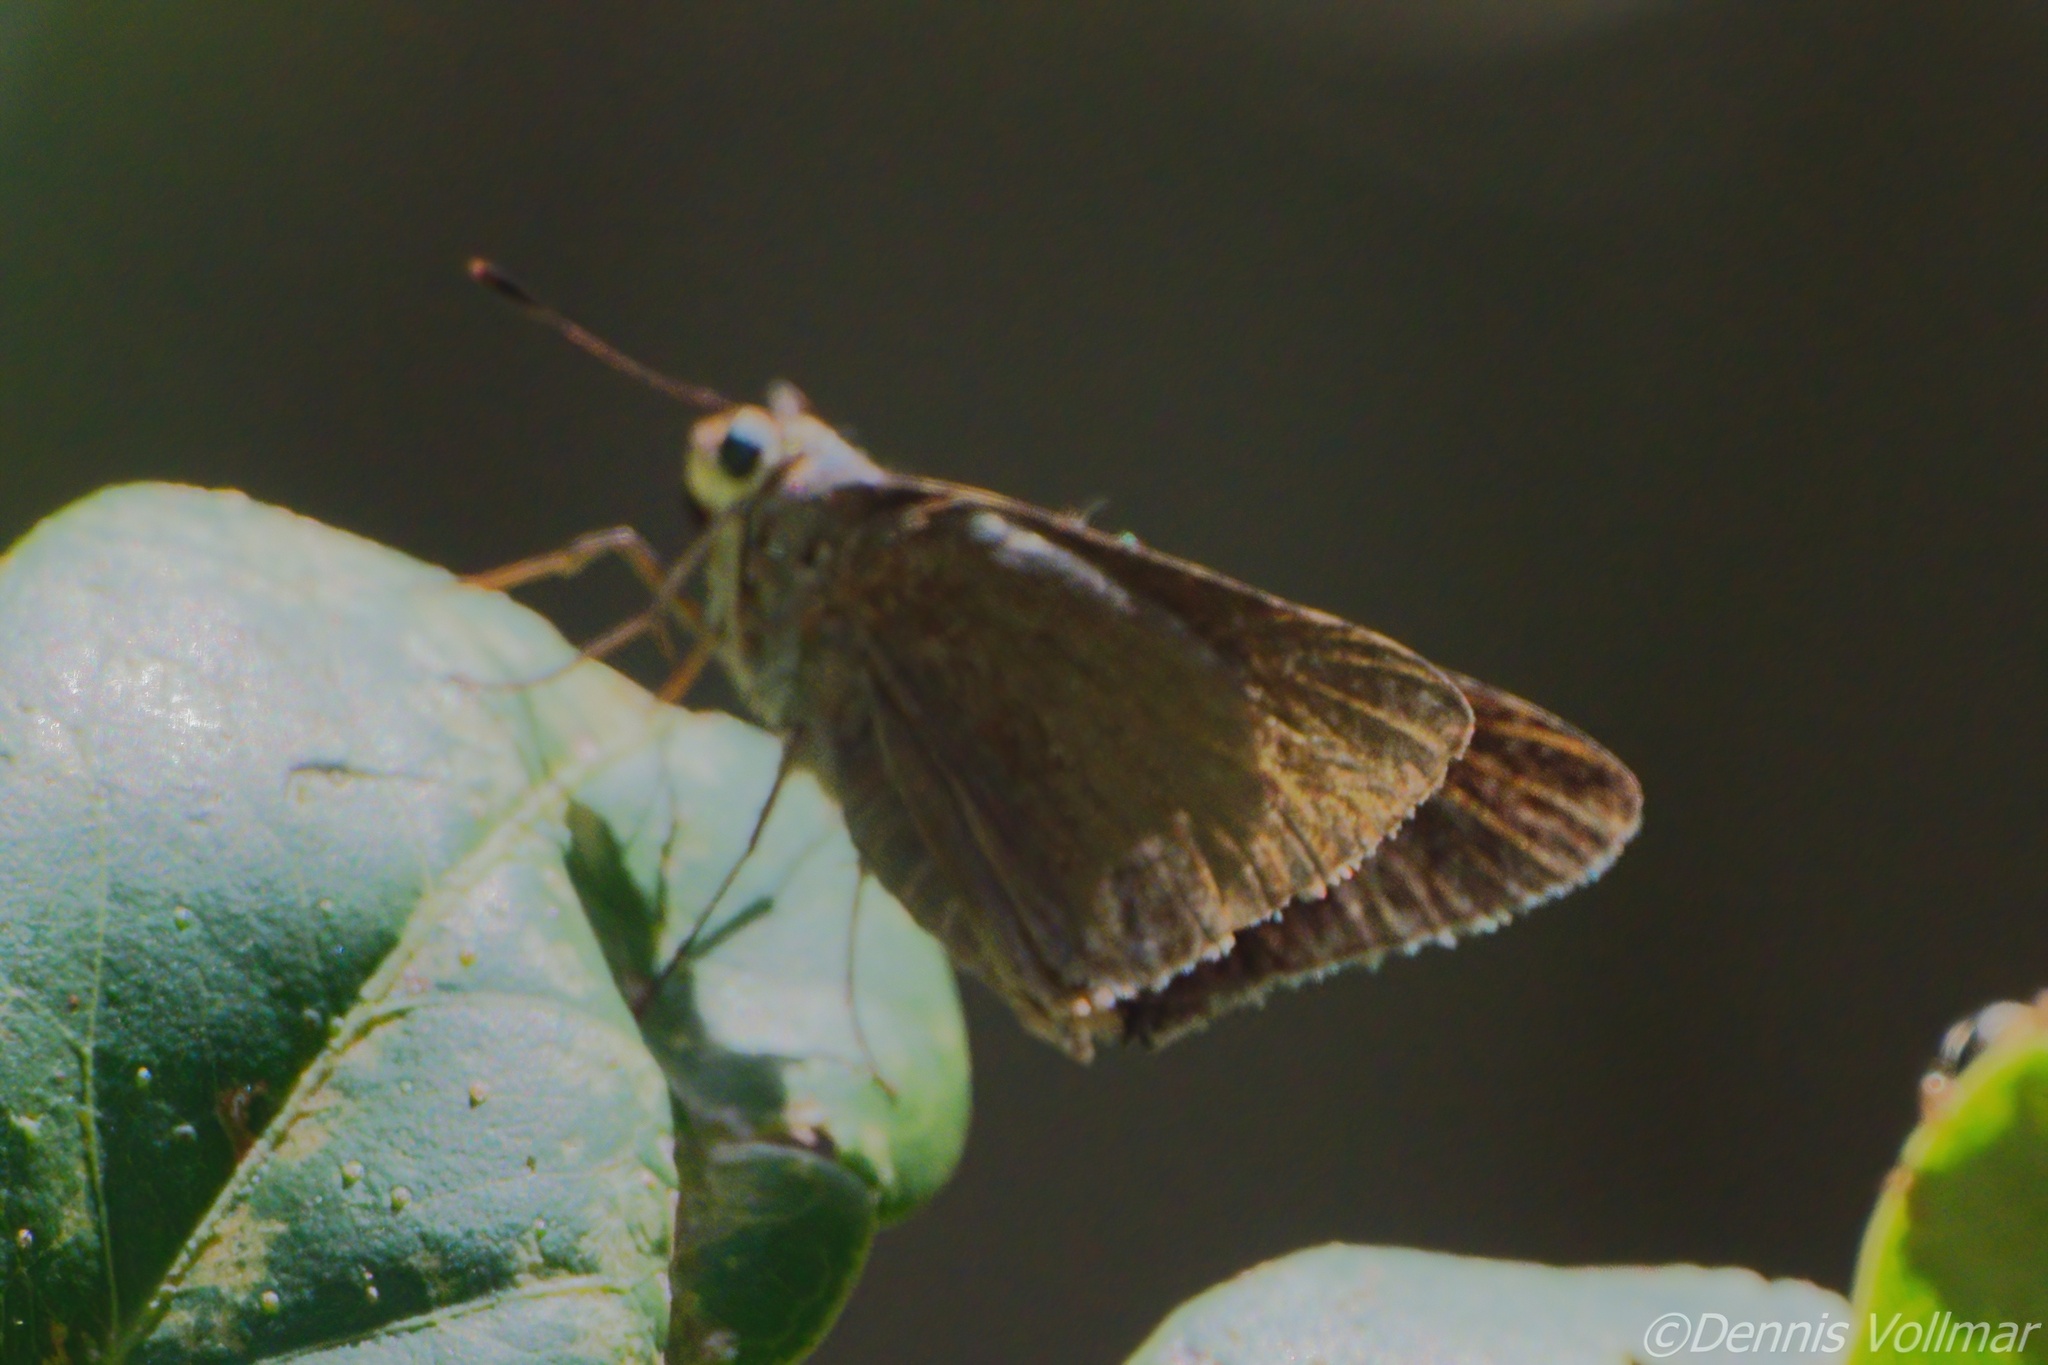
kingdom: Animalia
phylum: Arthropoda
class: Insecta
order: Lepidoptera
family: Hesperiidae
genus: Asbolis
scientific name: Asbolis capucinus
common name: Monk skipper
